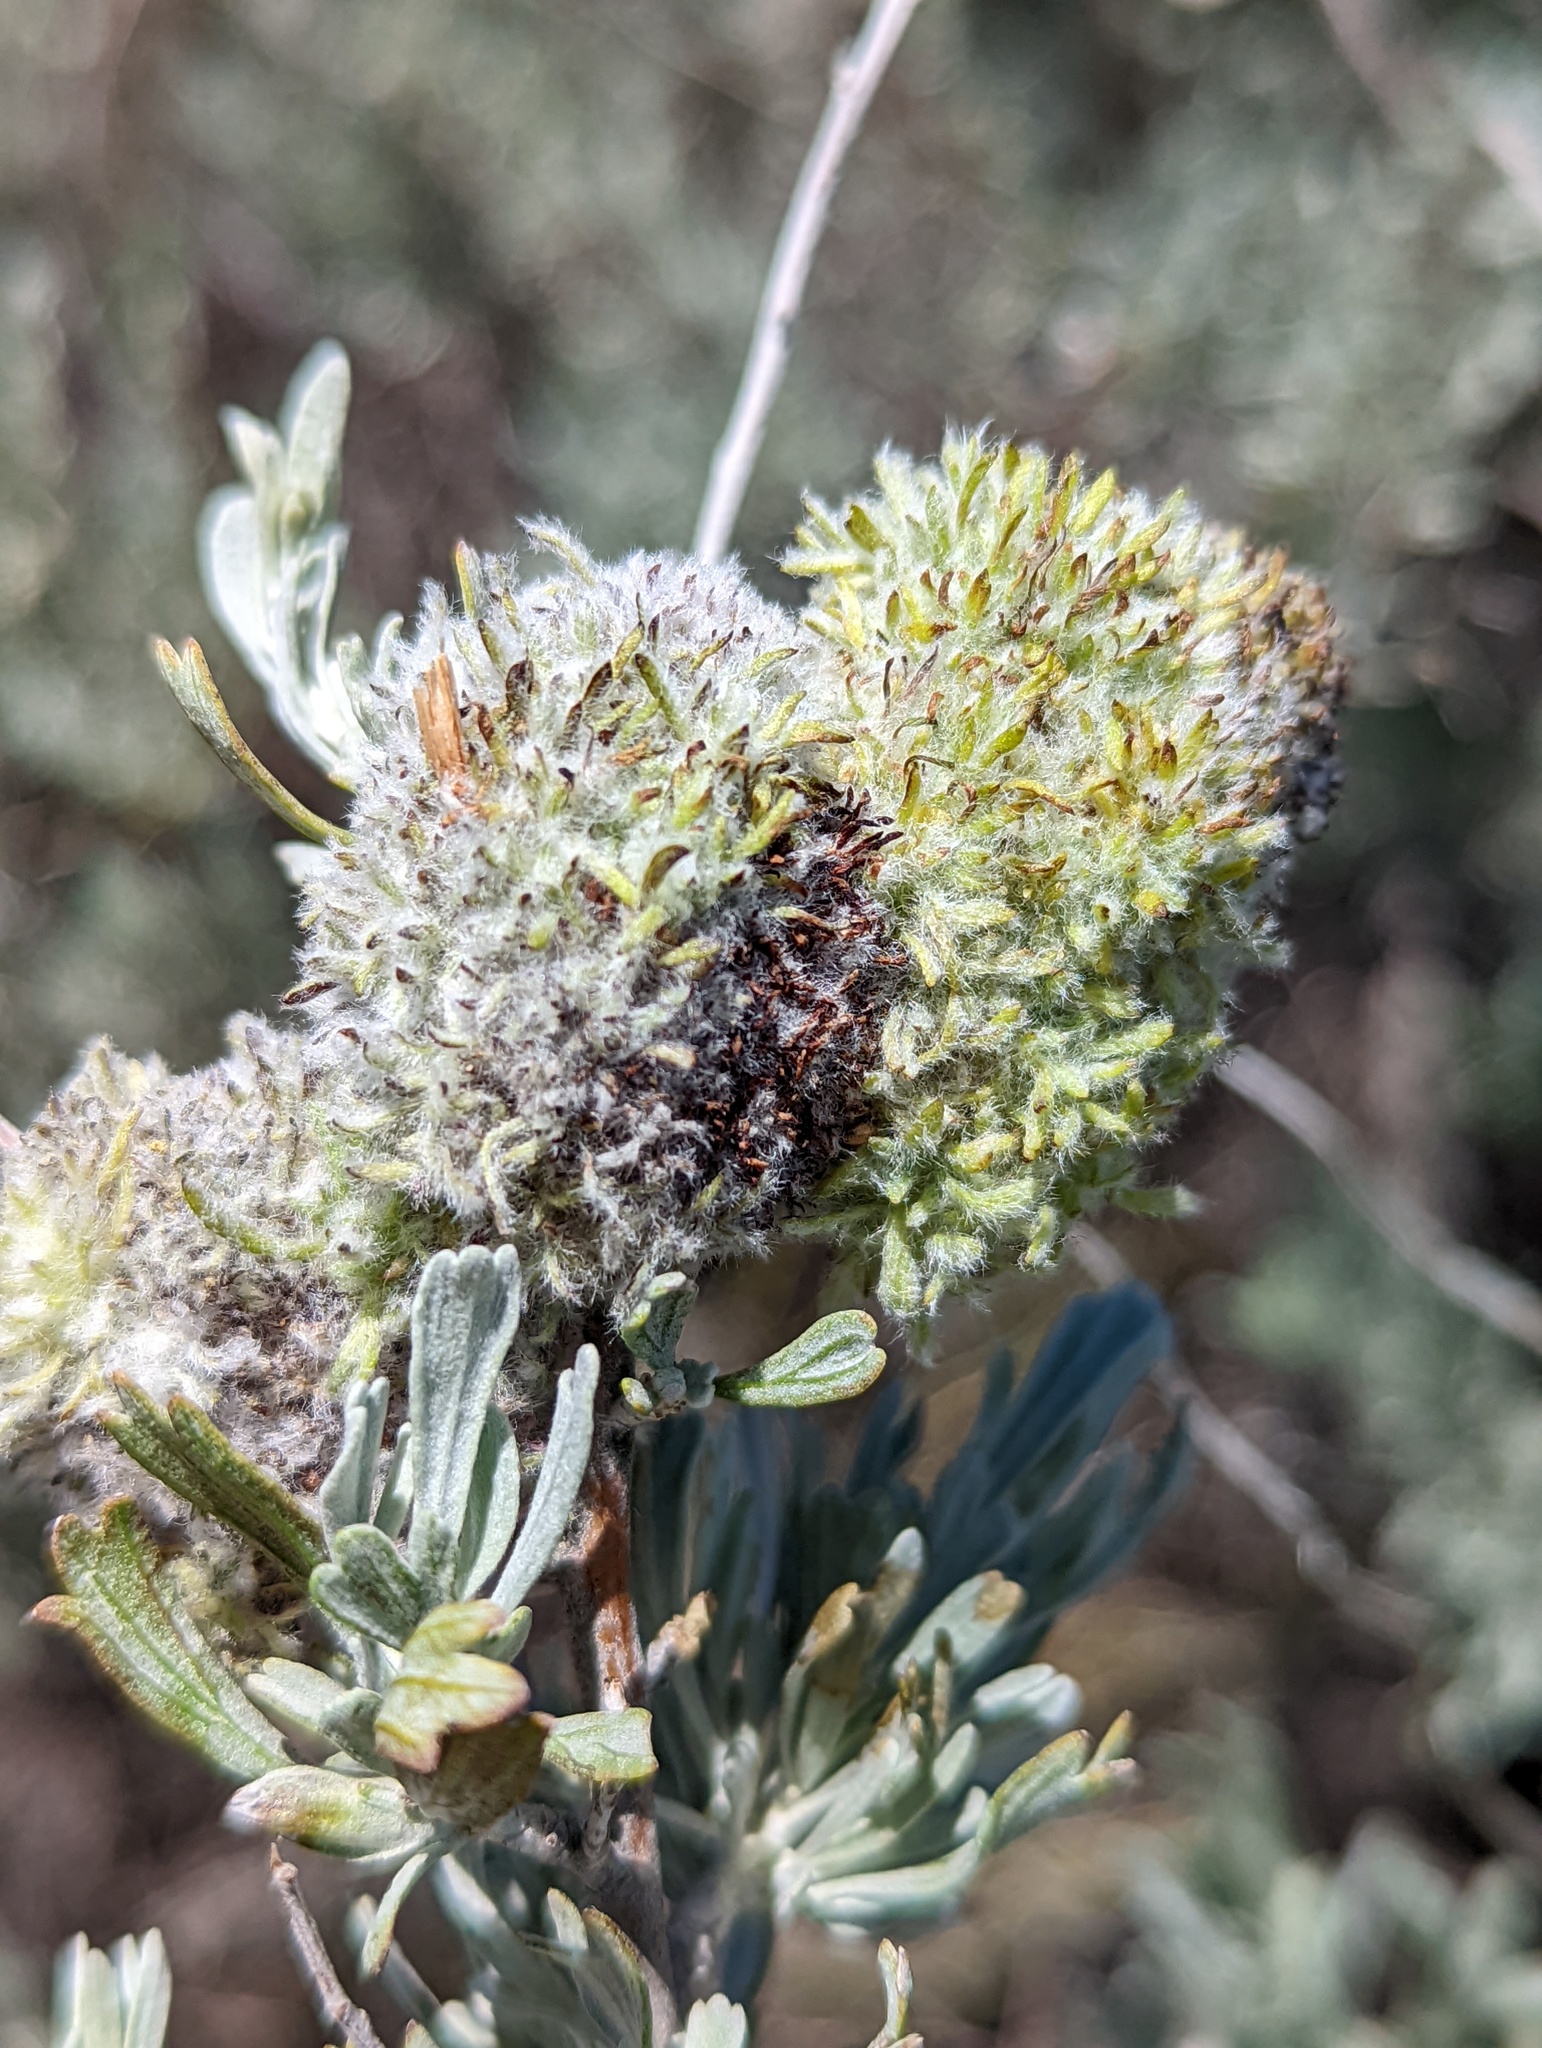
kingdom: Animalia
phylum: Arthropoda
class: Insecta
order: Diptera
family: Cecidomyiidae
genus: Rhopalomyia
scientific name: Rhopalomyia medusa
